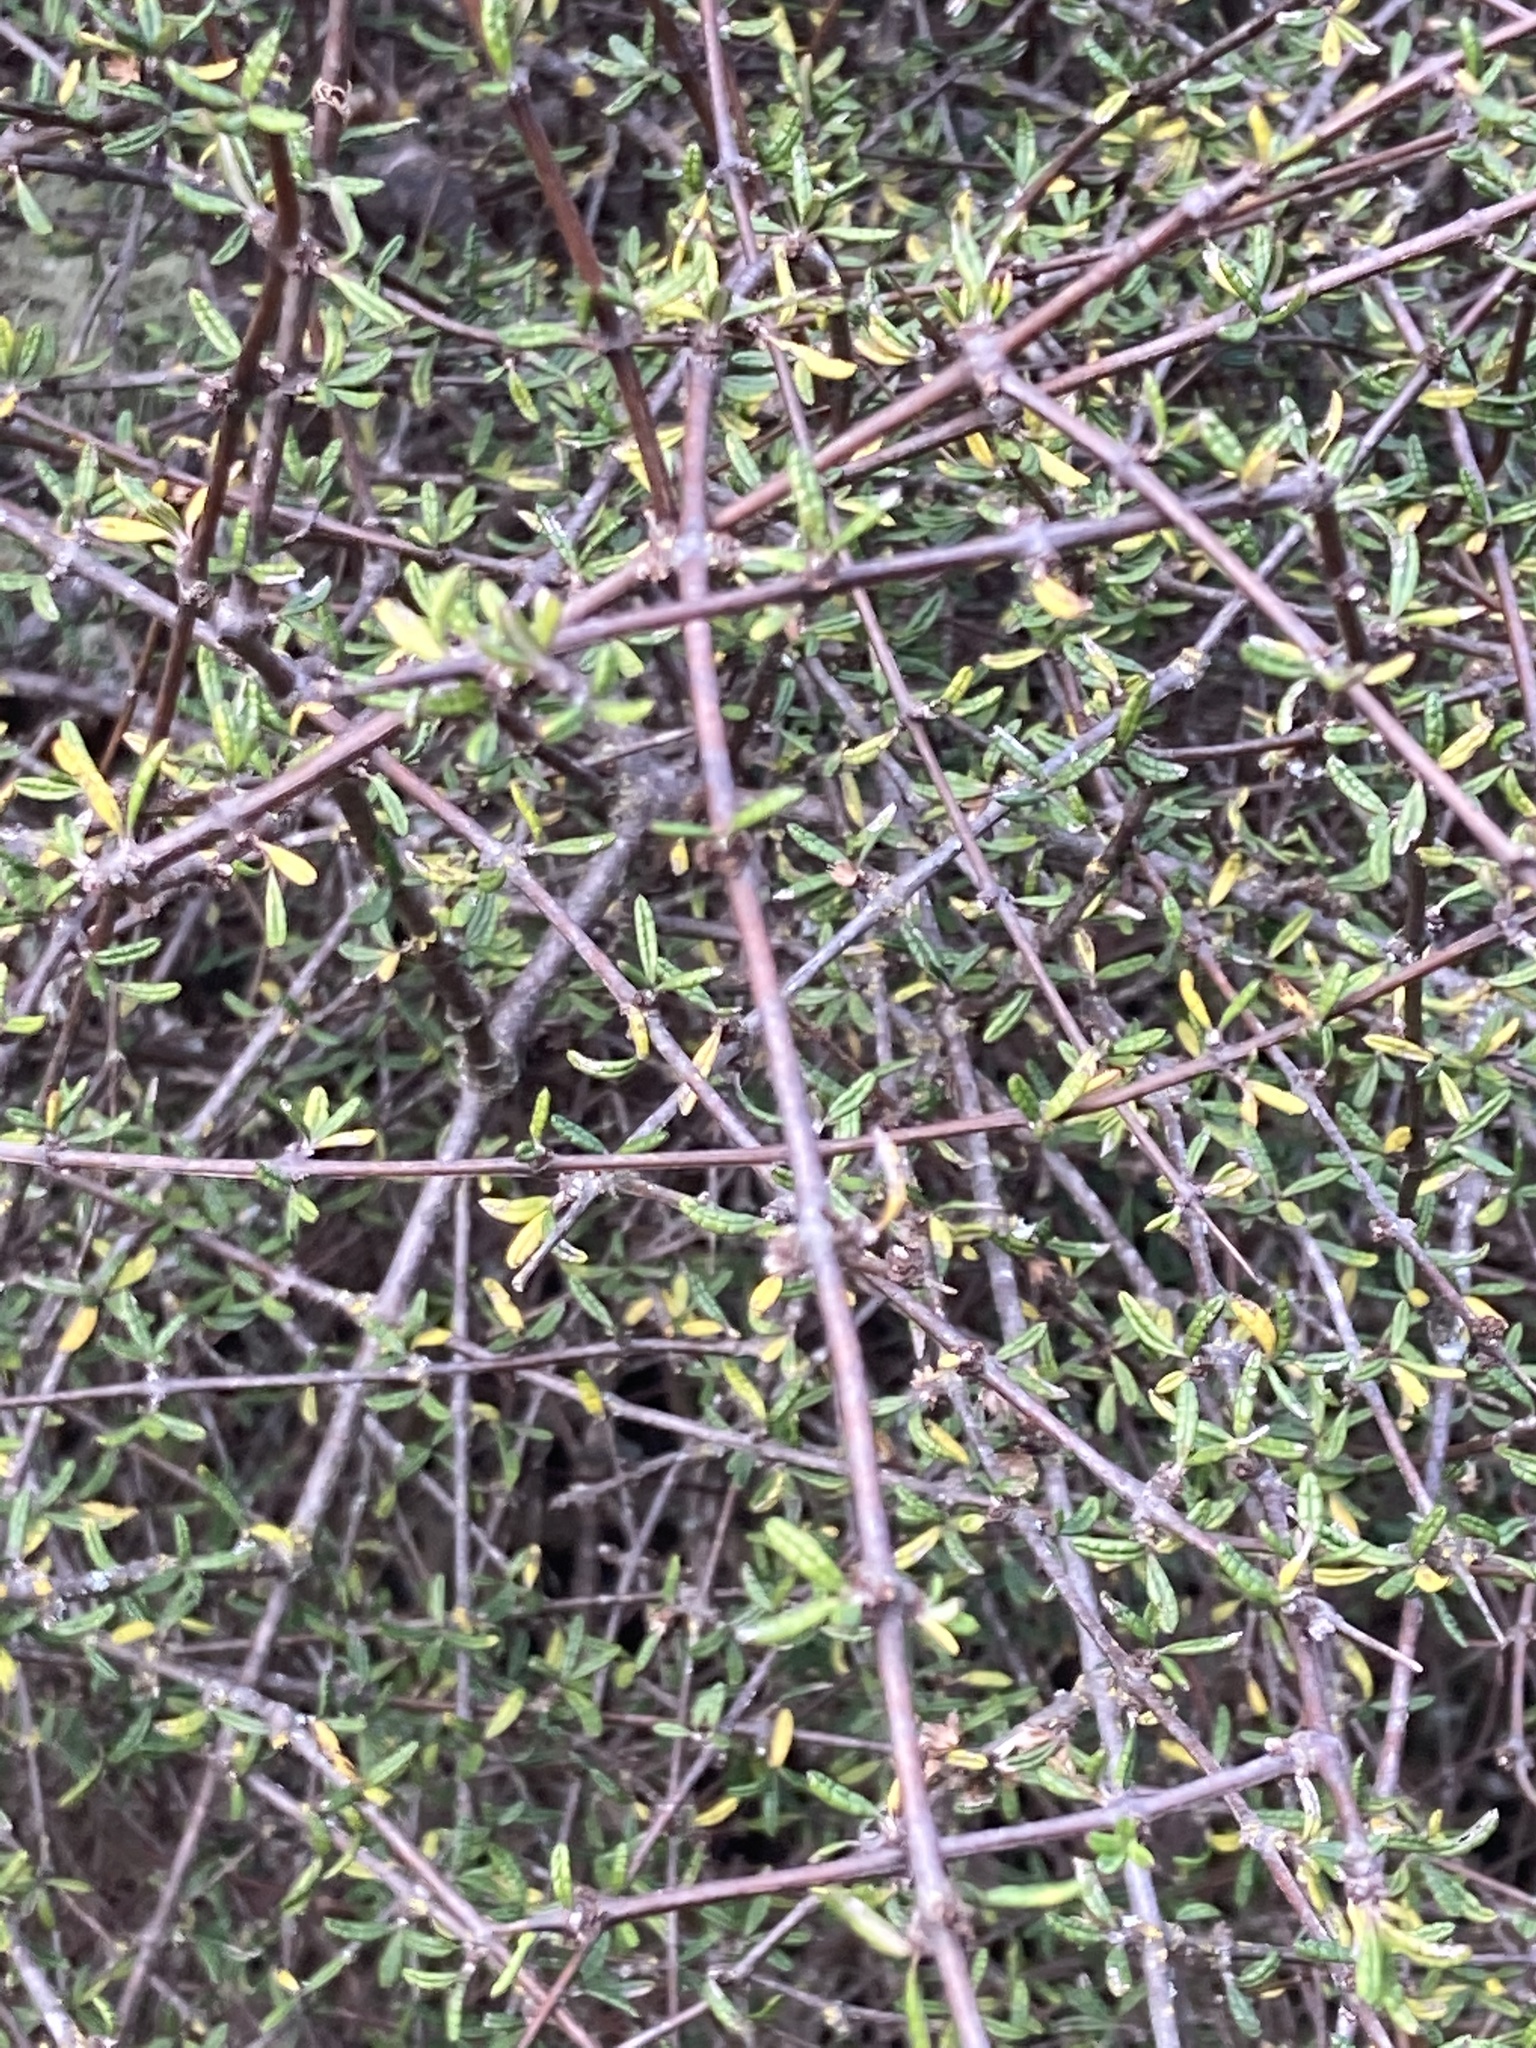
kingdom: Plantae
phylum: Tracheophyta
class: Magnoliopsida
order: Asterales
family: Asteraceae
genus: Olearia
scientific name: Olearia bullata
